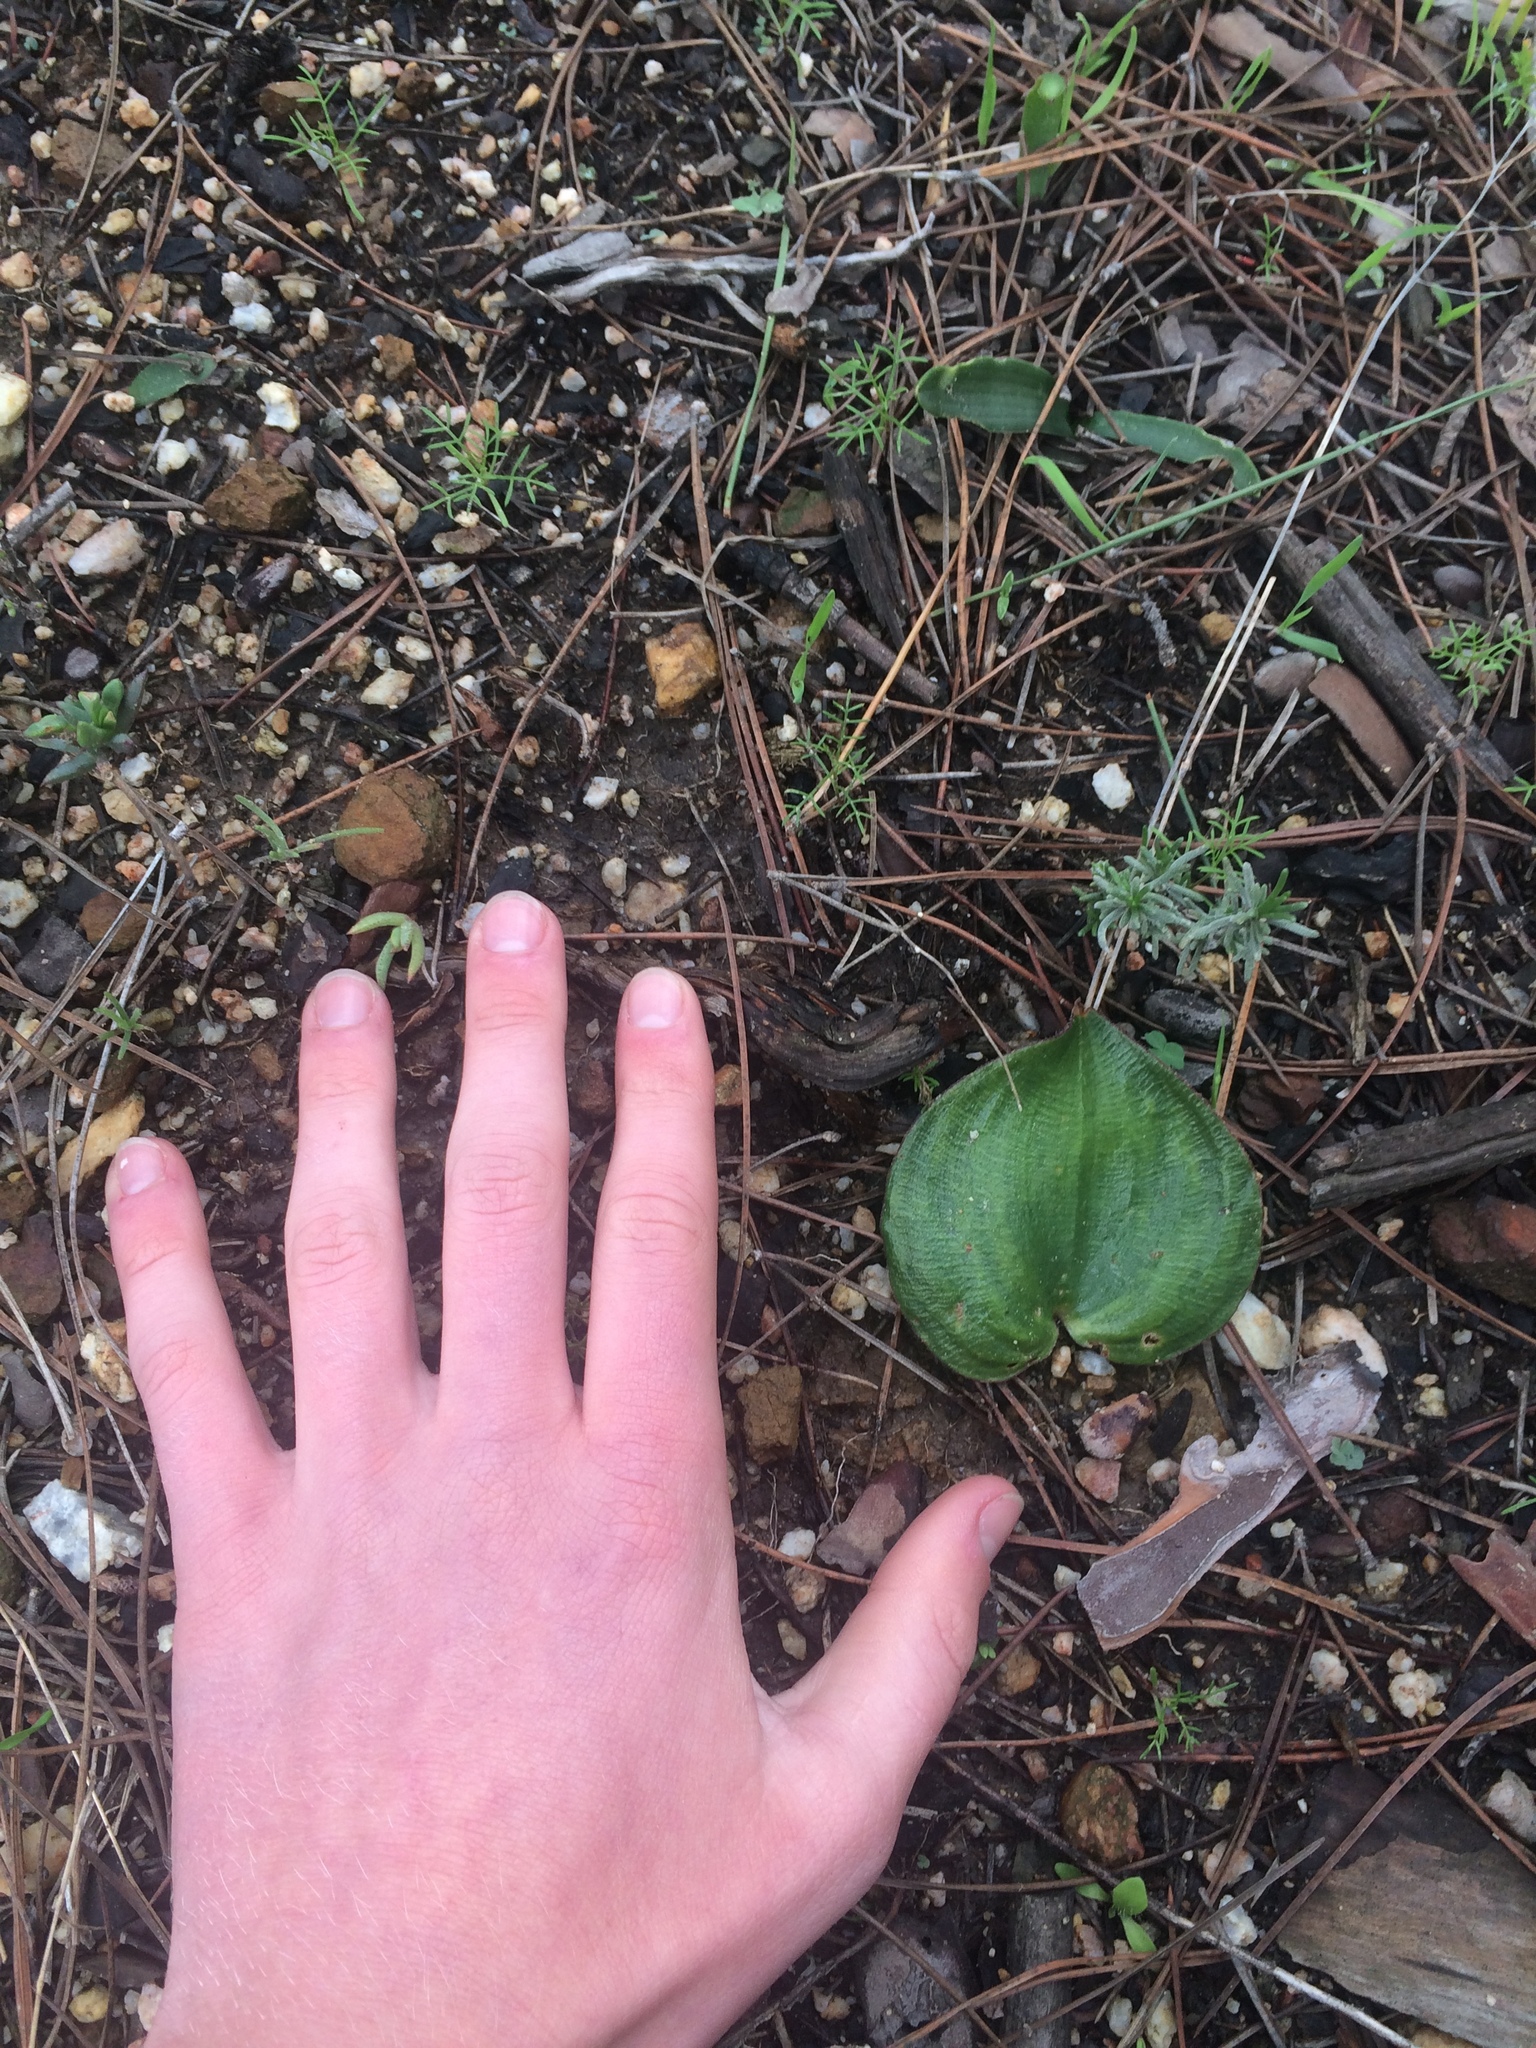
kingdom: Plantae
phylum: Tracheophyta
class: Liliopsida
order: Asparagales
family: Asparagaceae
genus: Eriospermum
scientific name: Eriospermum capense
